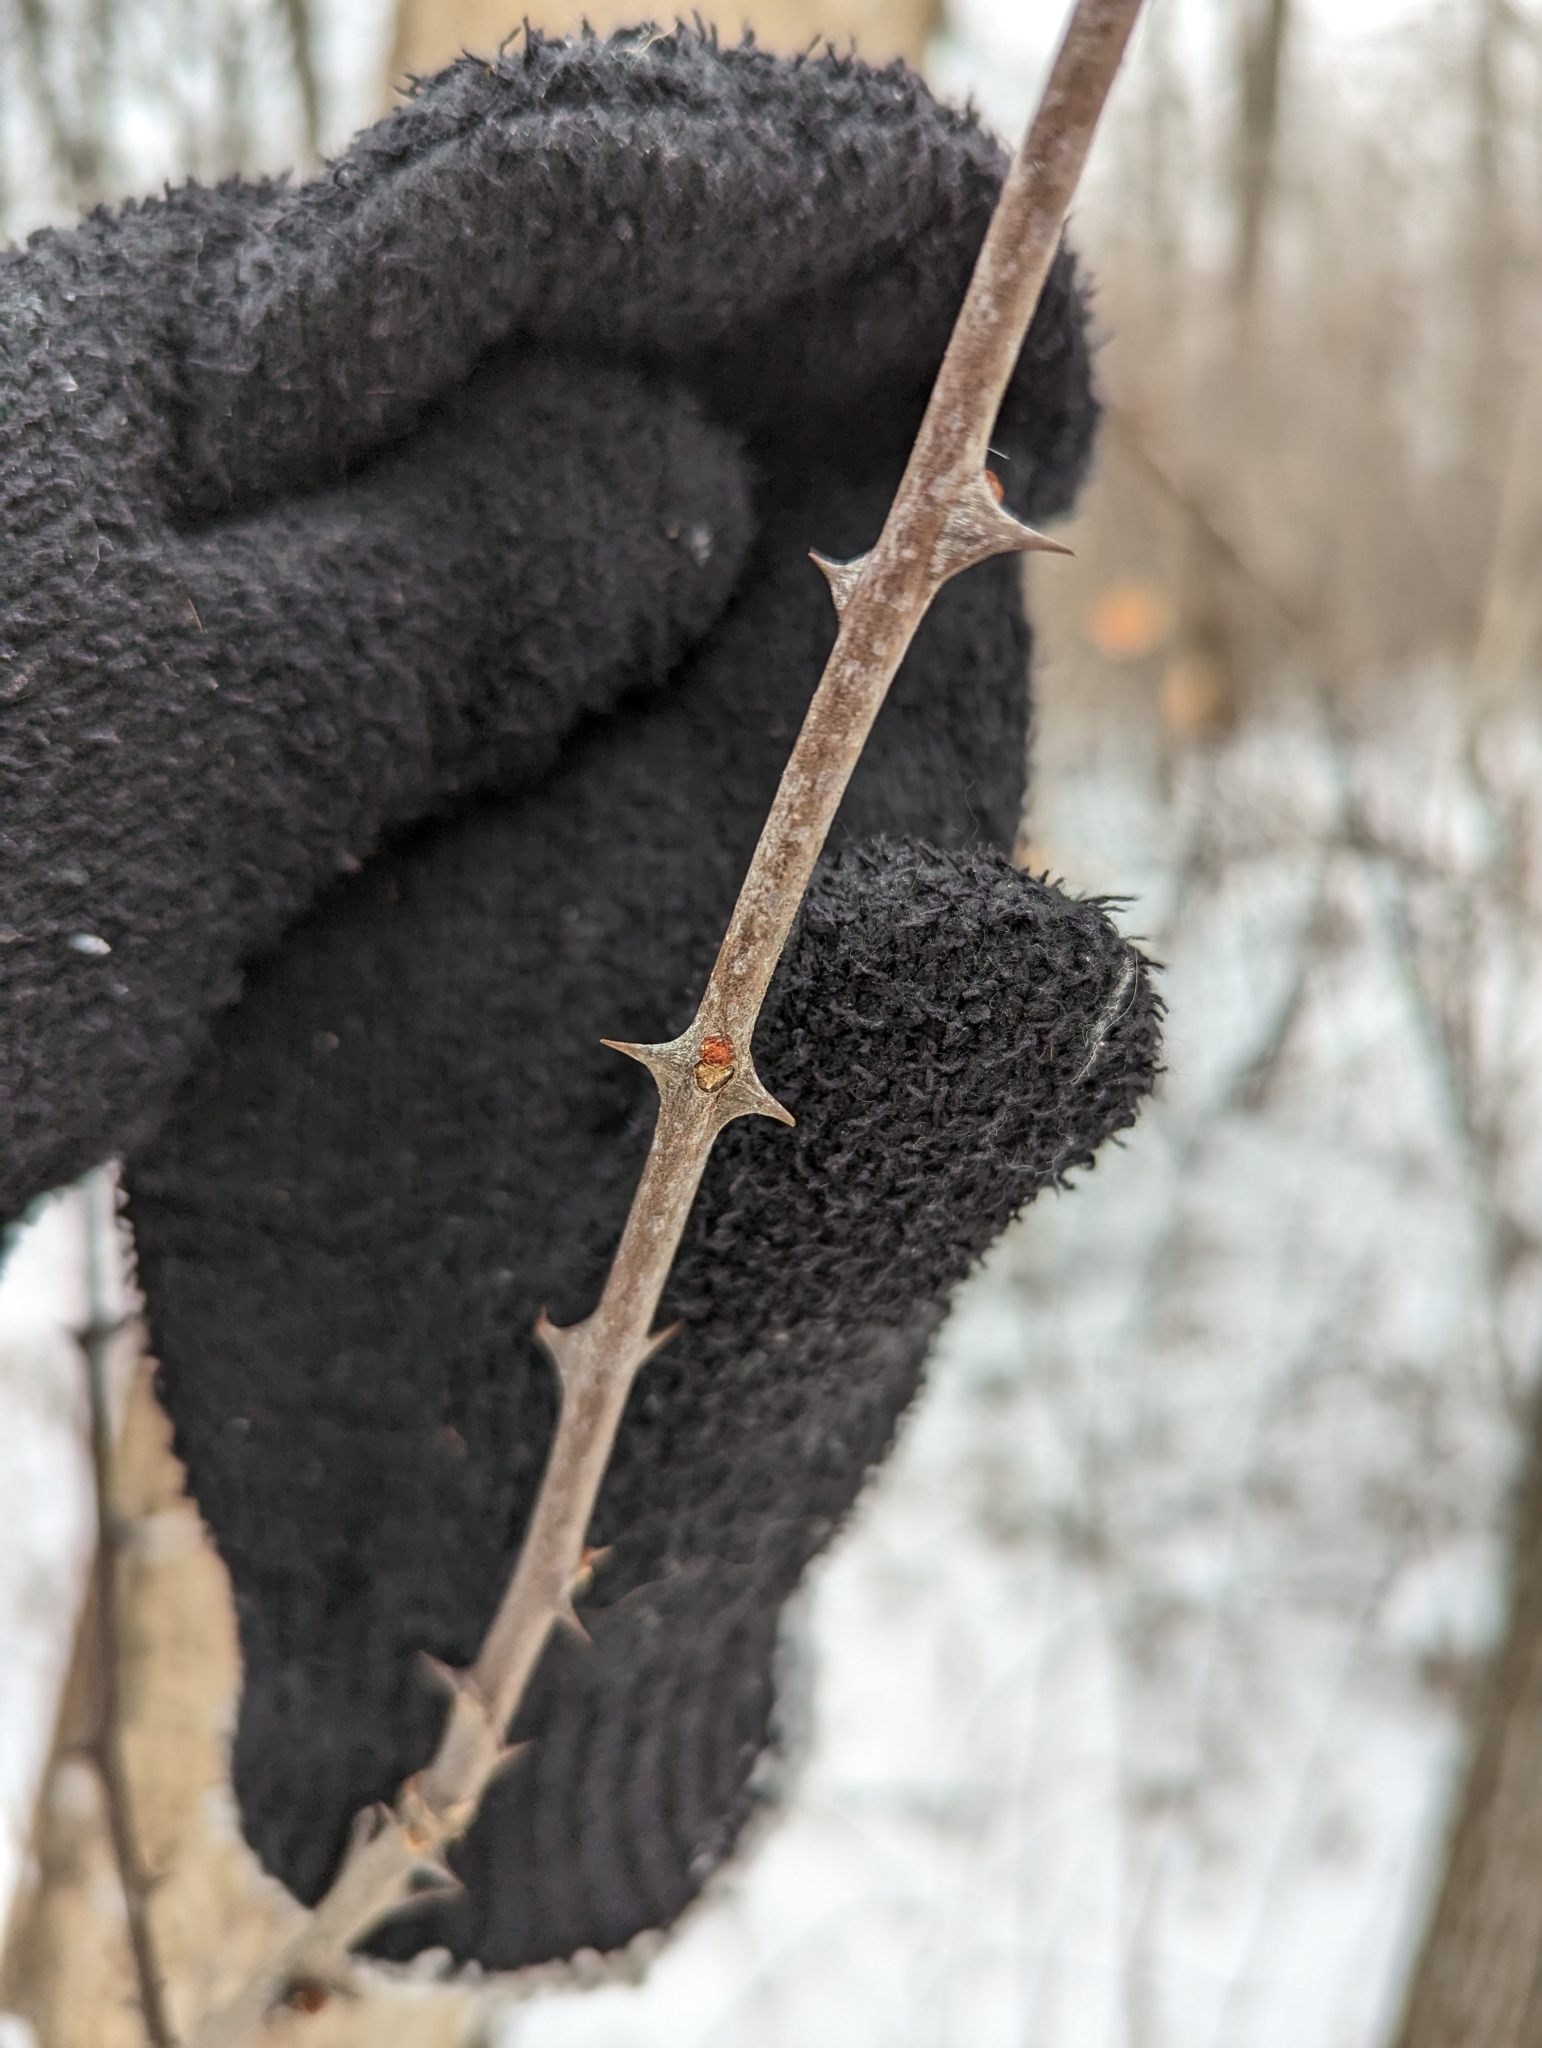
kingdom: Plantae
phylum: Tracheophyta
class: Magnoliopsida
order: Sapindales
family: Rutaceae
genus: Zanthoxylum
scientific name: Zanthoxylum americanum
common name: Northern prickly-ash
